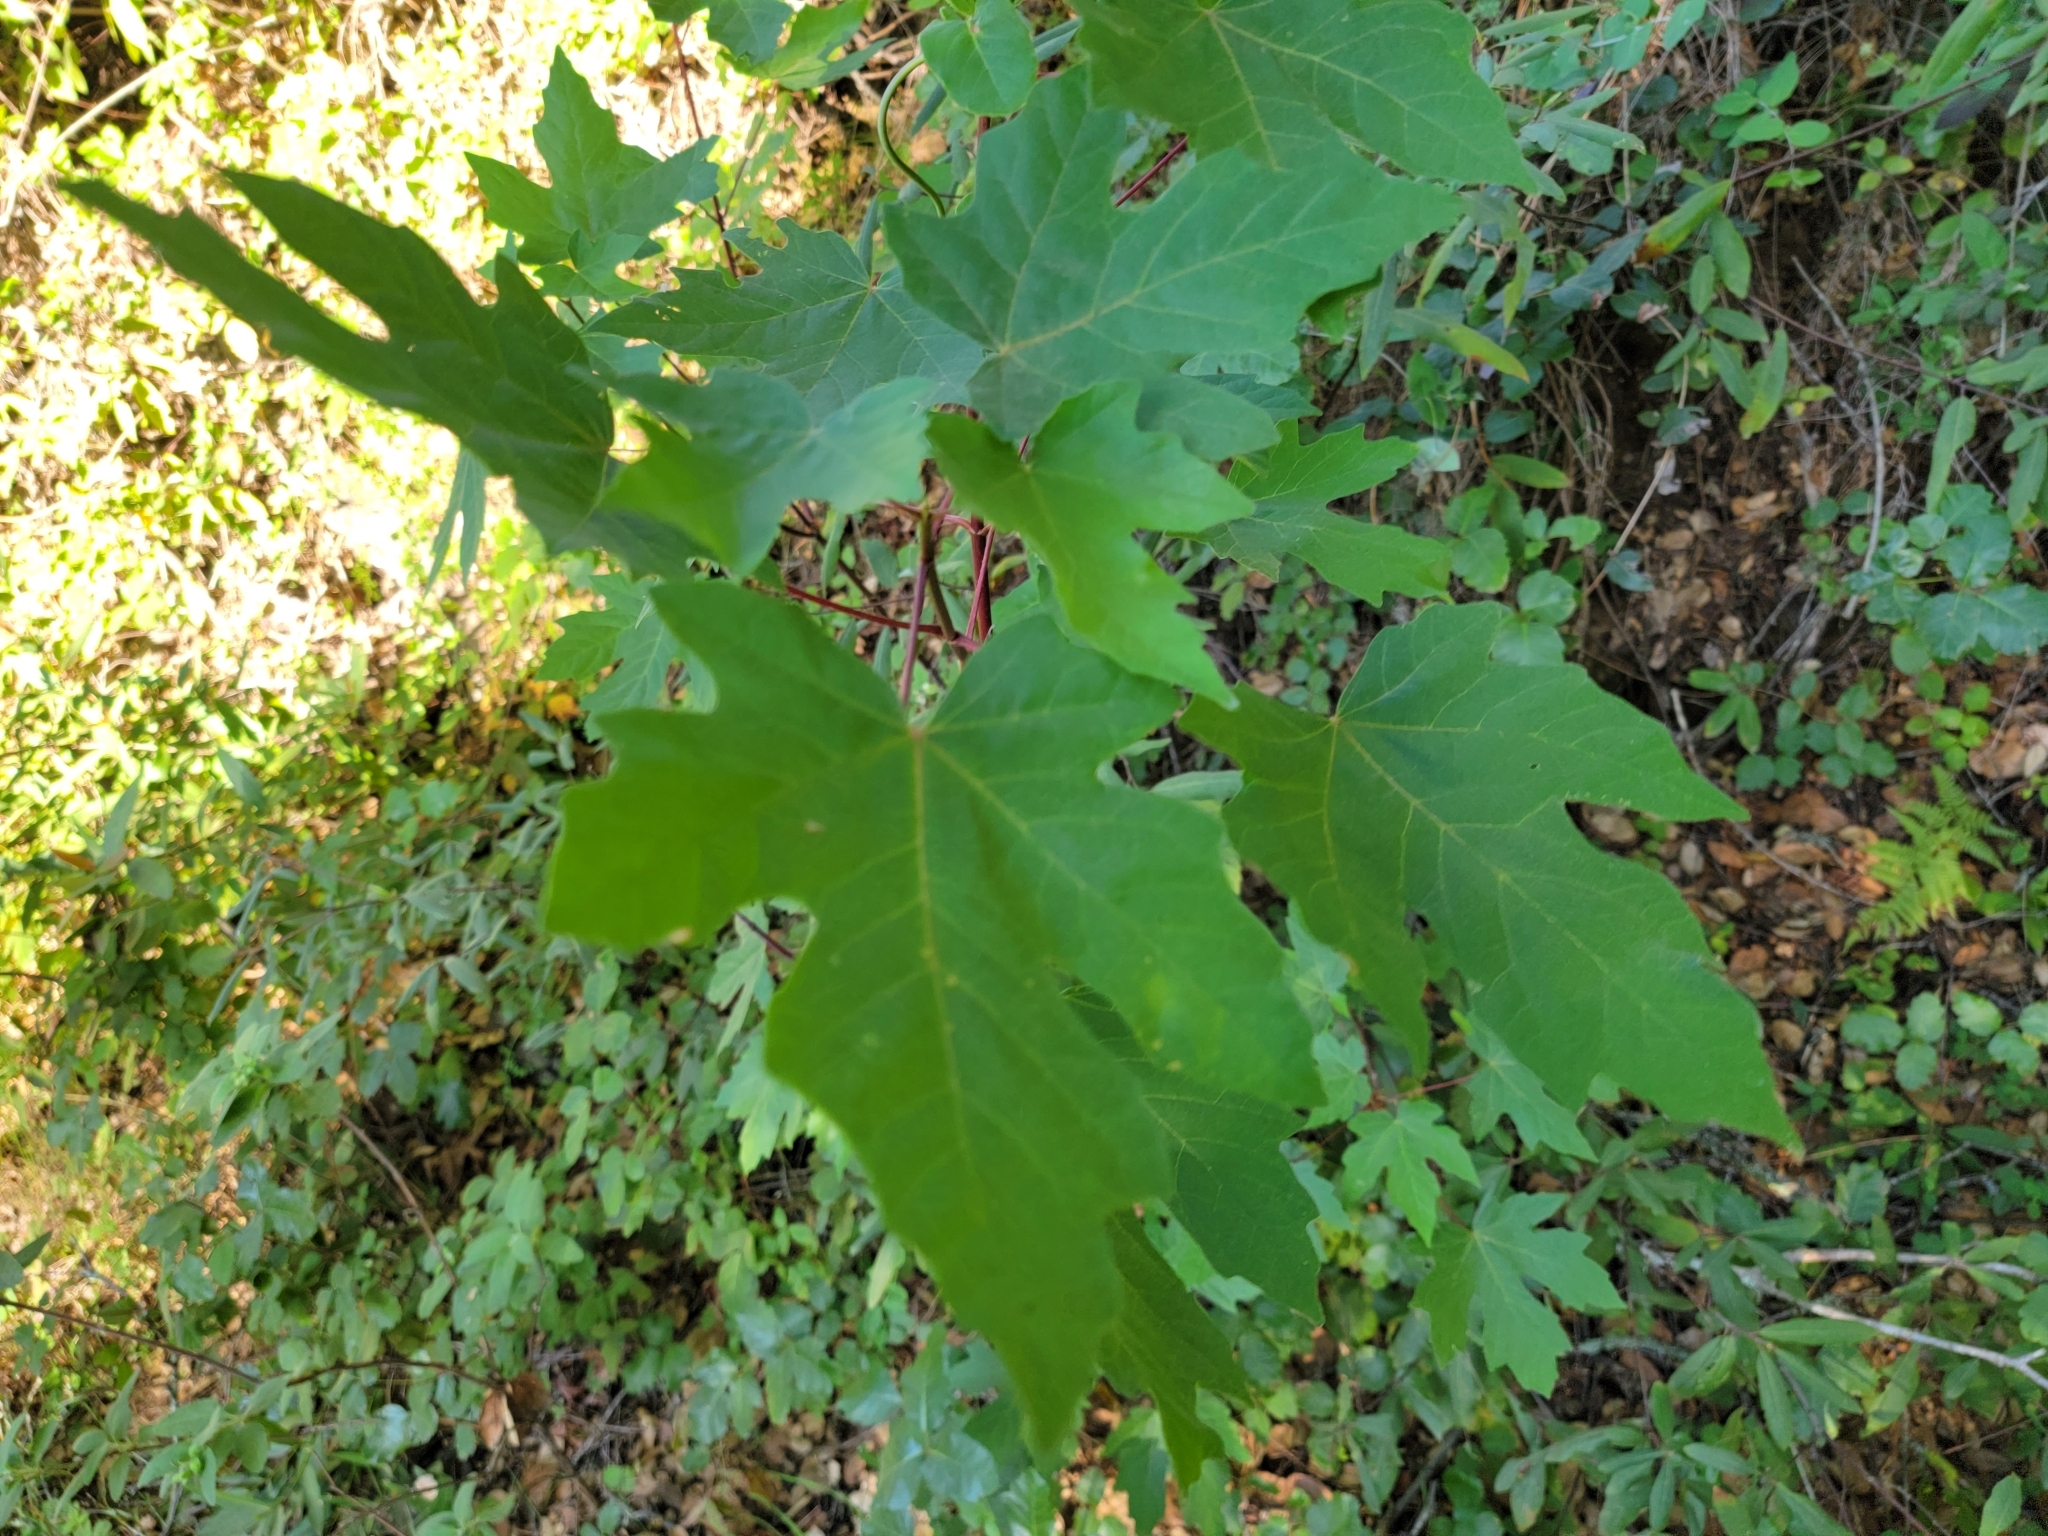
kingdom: Plantae
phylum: Tracheophyta
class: Magnoliopsida
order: Sapindales
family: Sapindaceae
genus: Acer
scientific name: Acer macrophyllum
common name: Oregon maple
